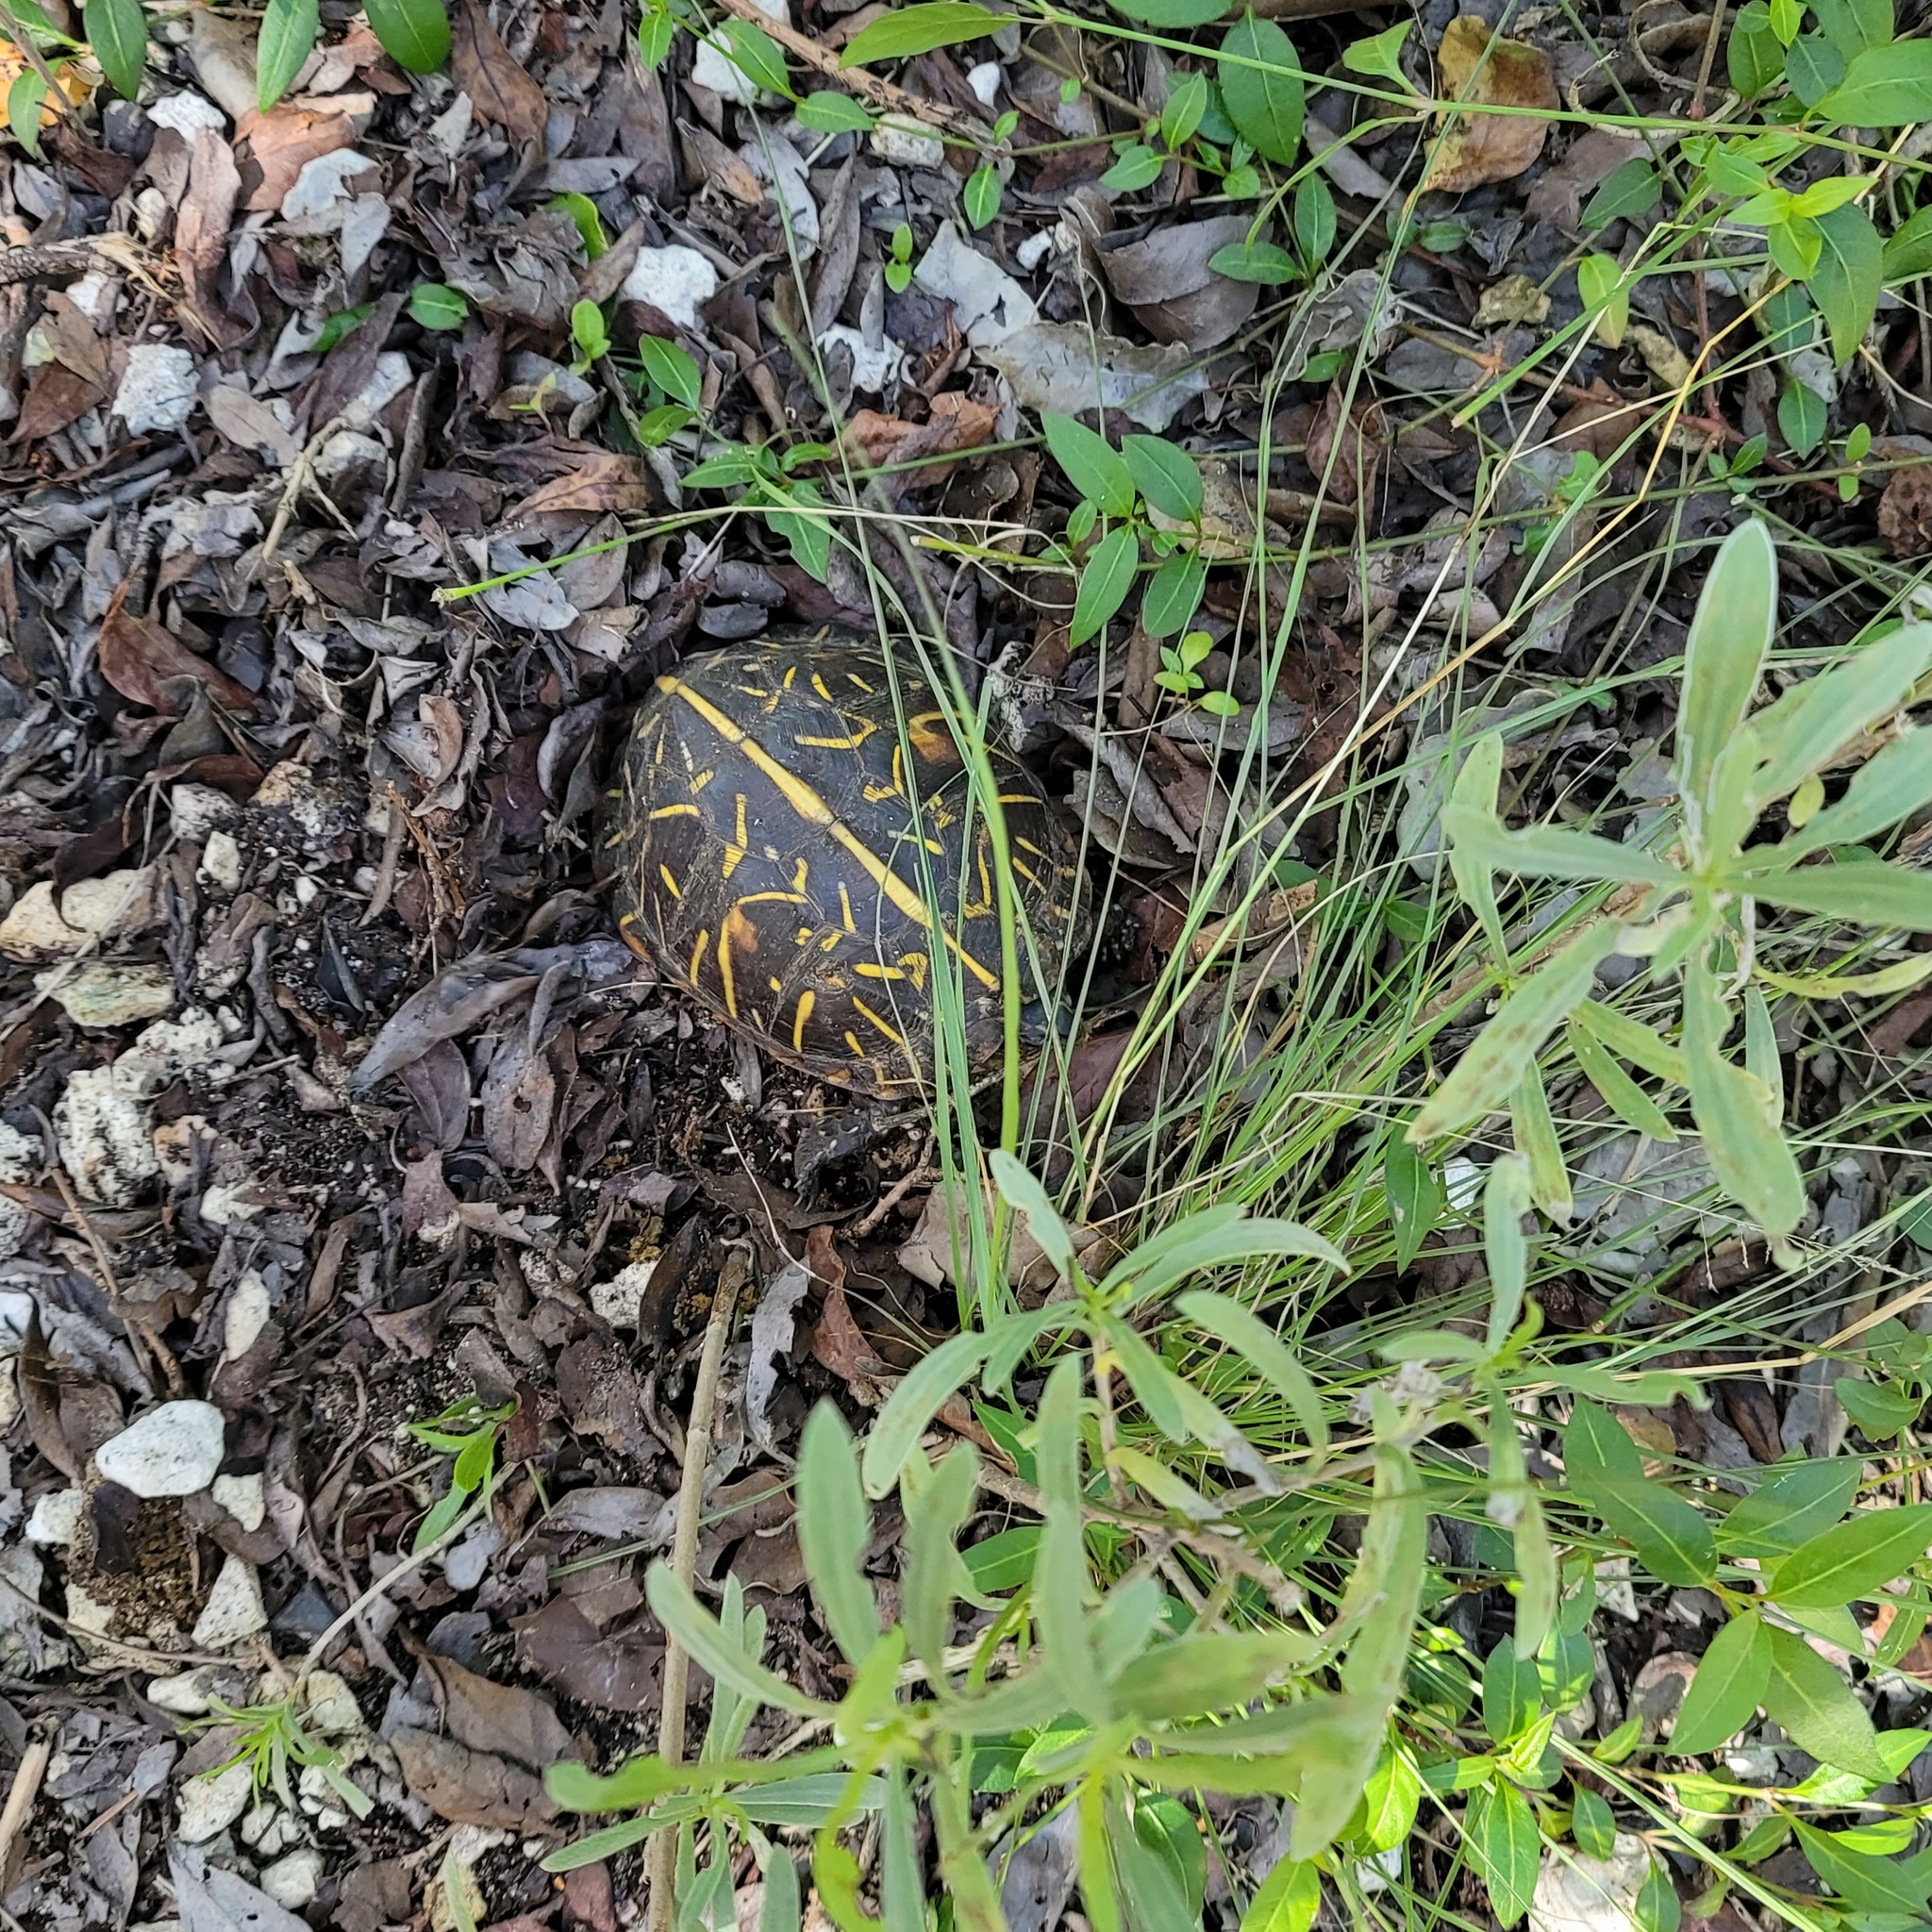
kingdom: Animalia
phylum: Chordata
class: Testudines
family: Emydidae
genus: Terrapene
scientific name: Terrapene carolina
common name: Common box turtle
